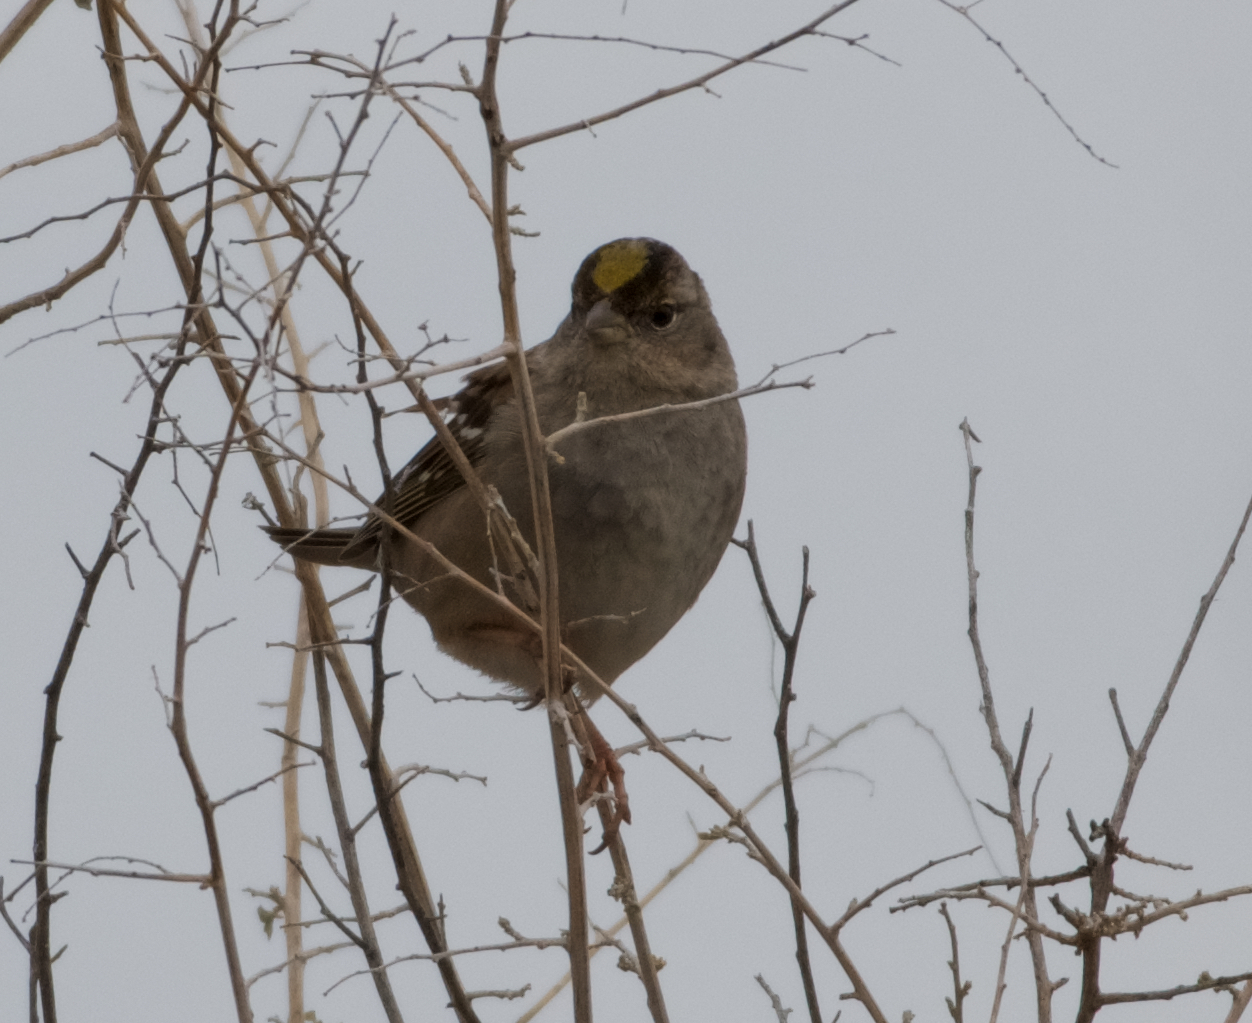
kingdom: Animalia
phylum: Chordata
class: Aves
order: Passeriformes
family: Passerellidae
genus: Zonotrichia
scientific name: Zonotrichia atricapilla
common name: Golden-crowned sparrow
